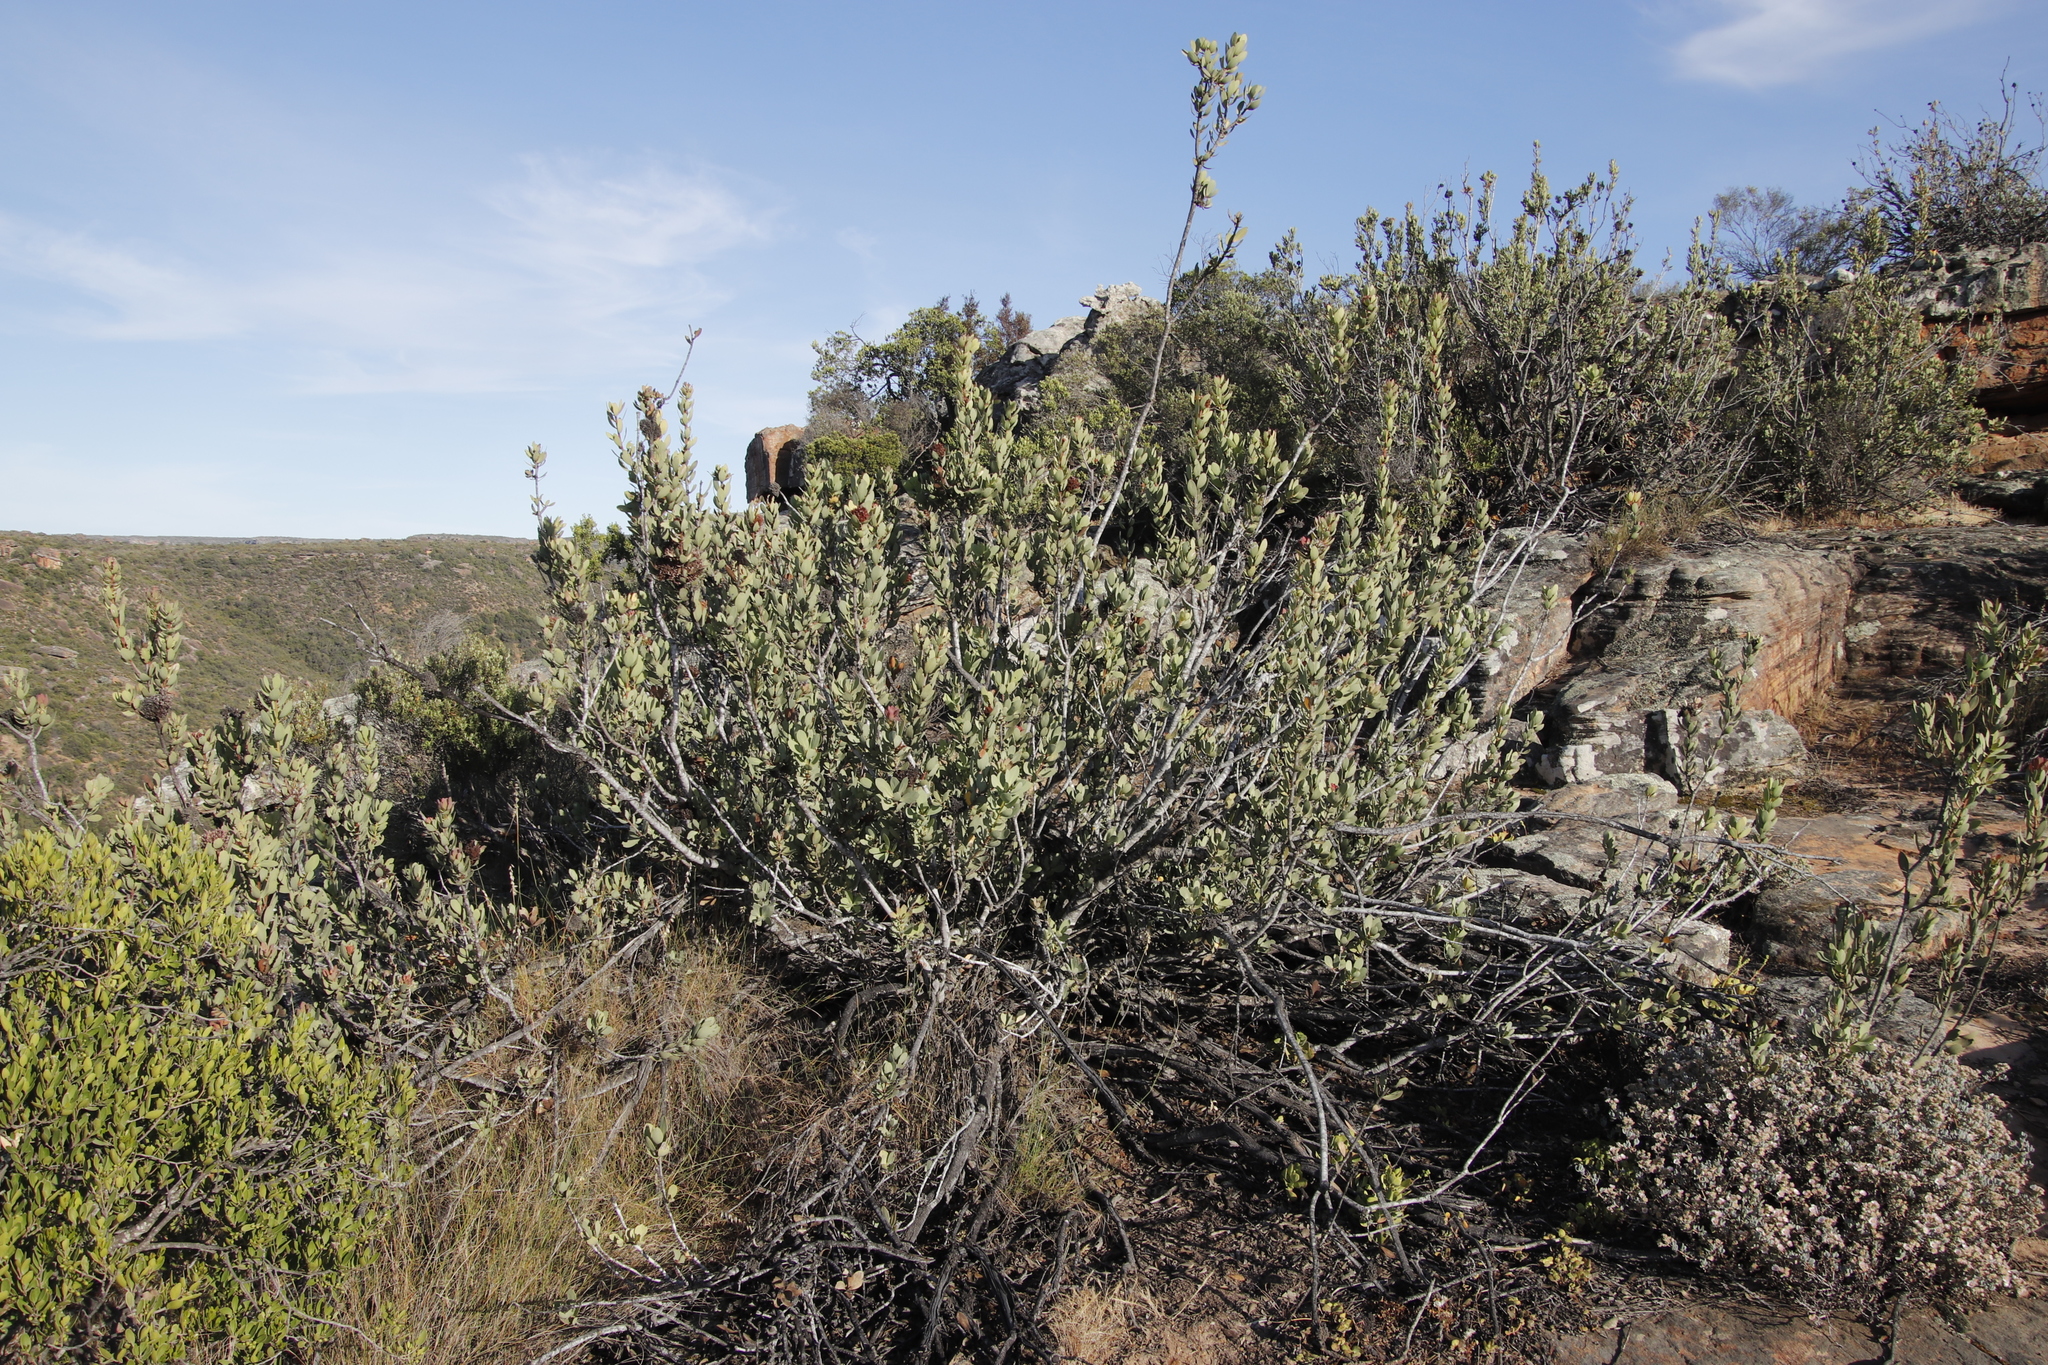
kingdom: Plantae
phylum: Tracheophyta
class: Magnoliopsida
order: Proteales
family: Proteaceae
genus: Protea
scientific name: Protea glabra
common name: Chestnut sugarbush
